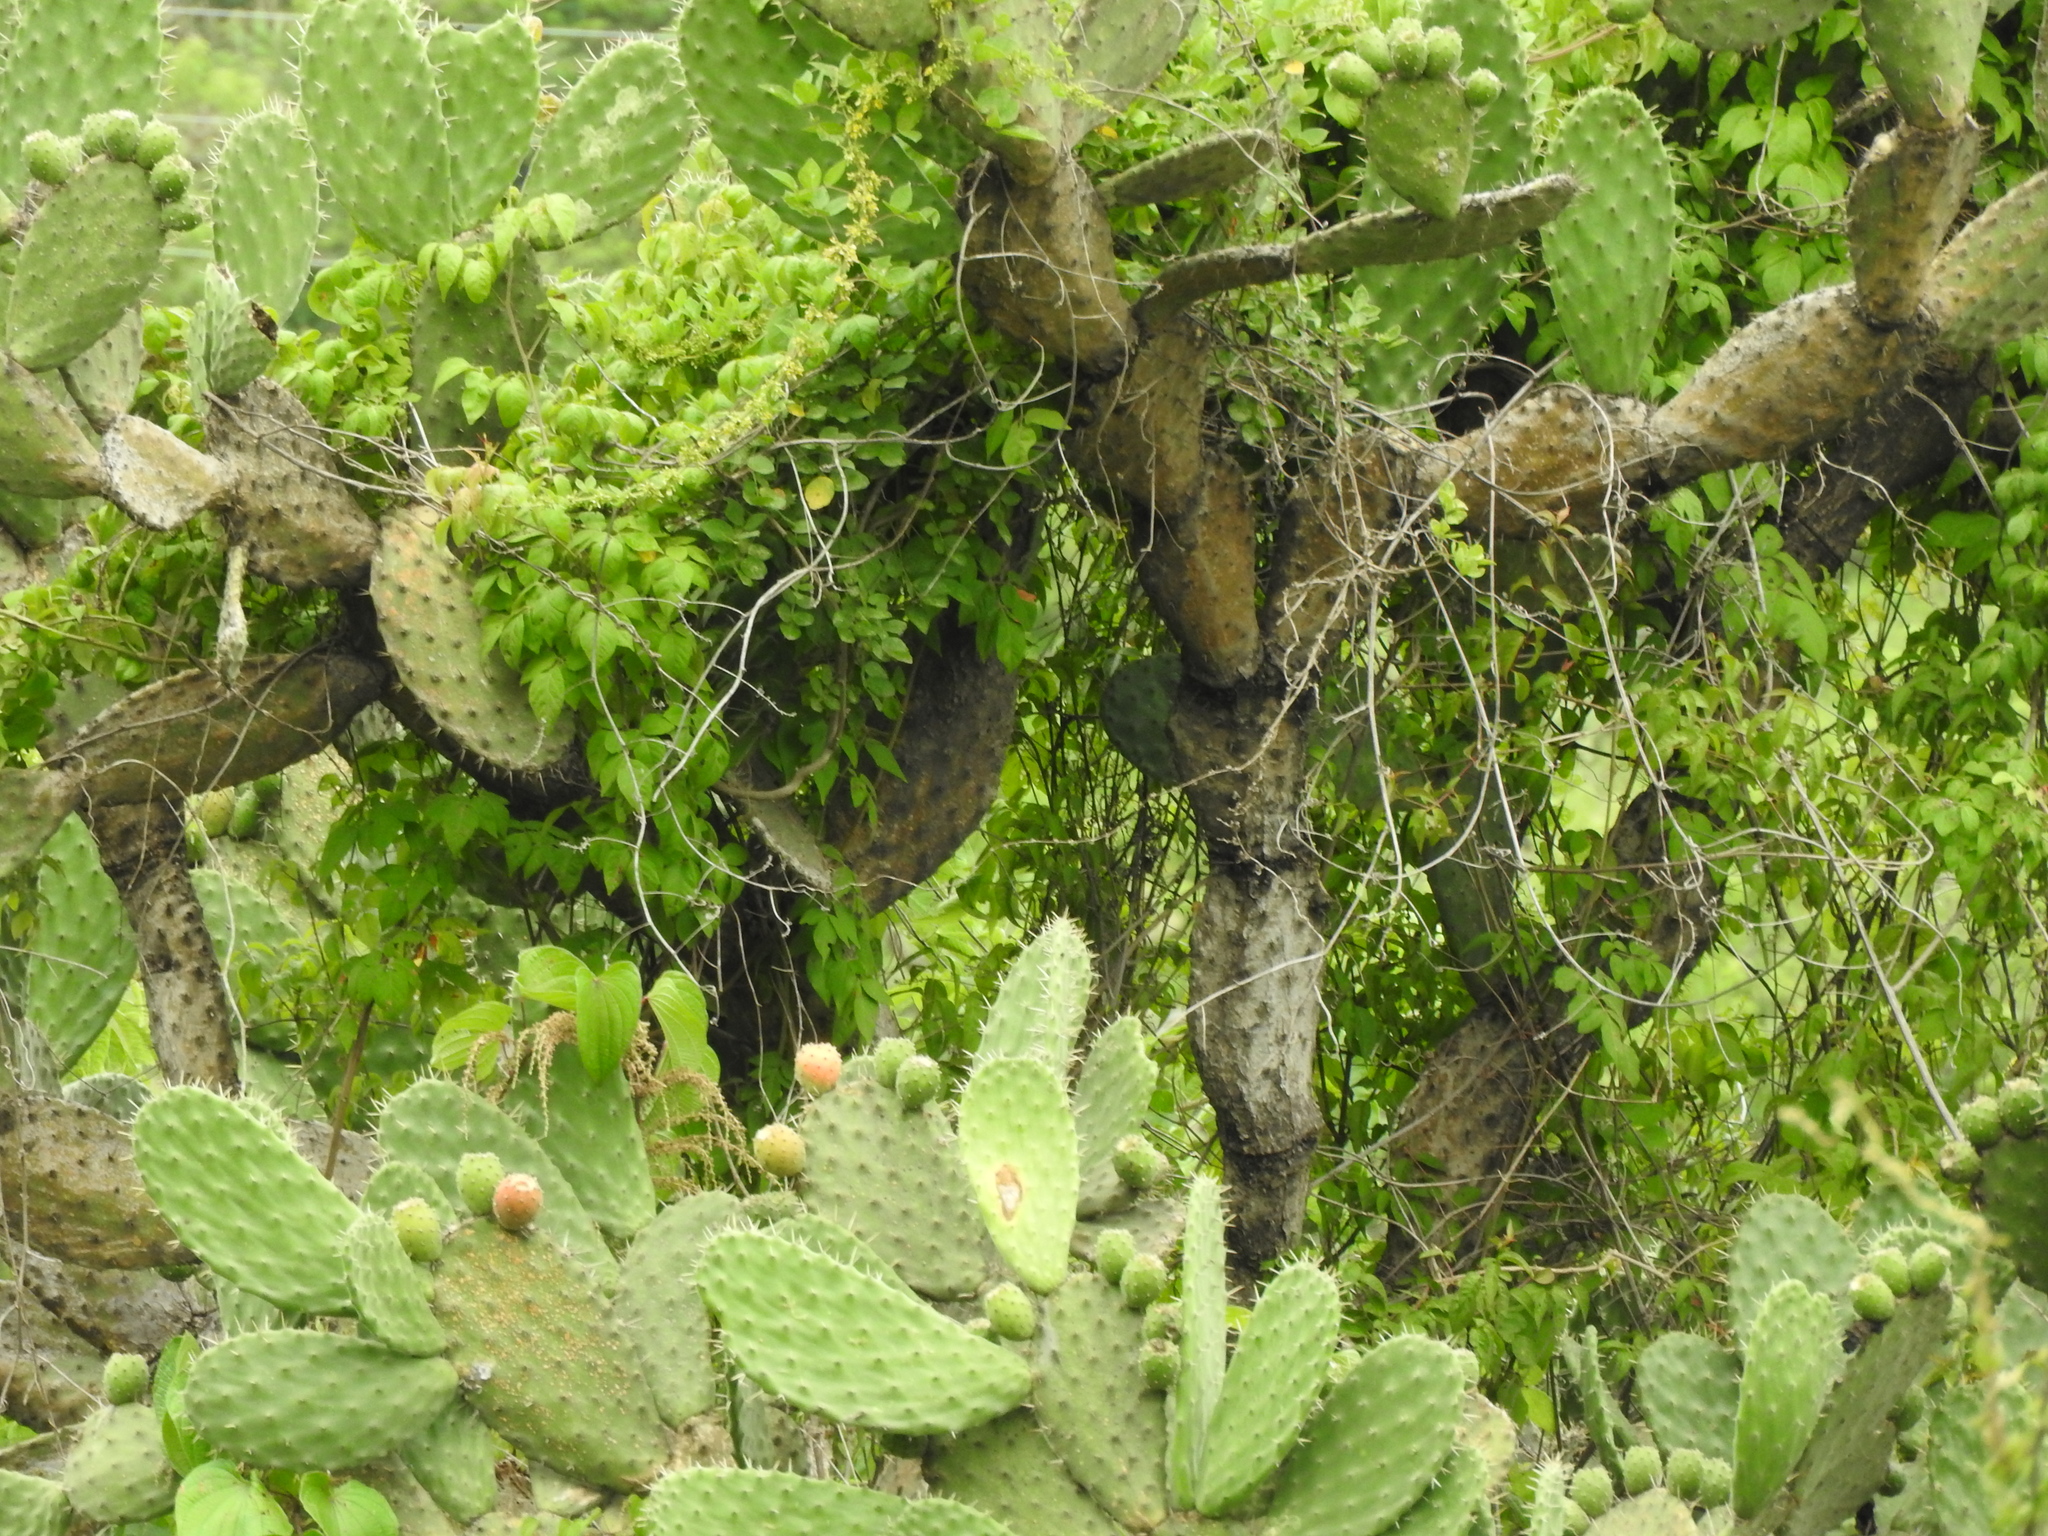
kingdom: Plantae
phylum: Tracheophyta
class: Magnoliopsida
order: Caryophyllales
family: Cactaceae
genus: Opuntia
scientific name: Opuntia jaliscana
